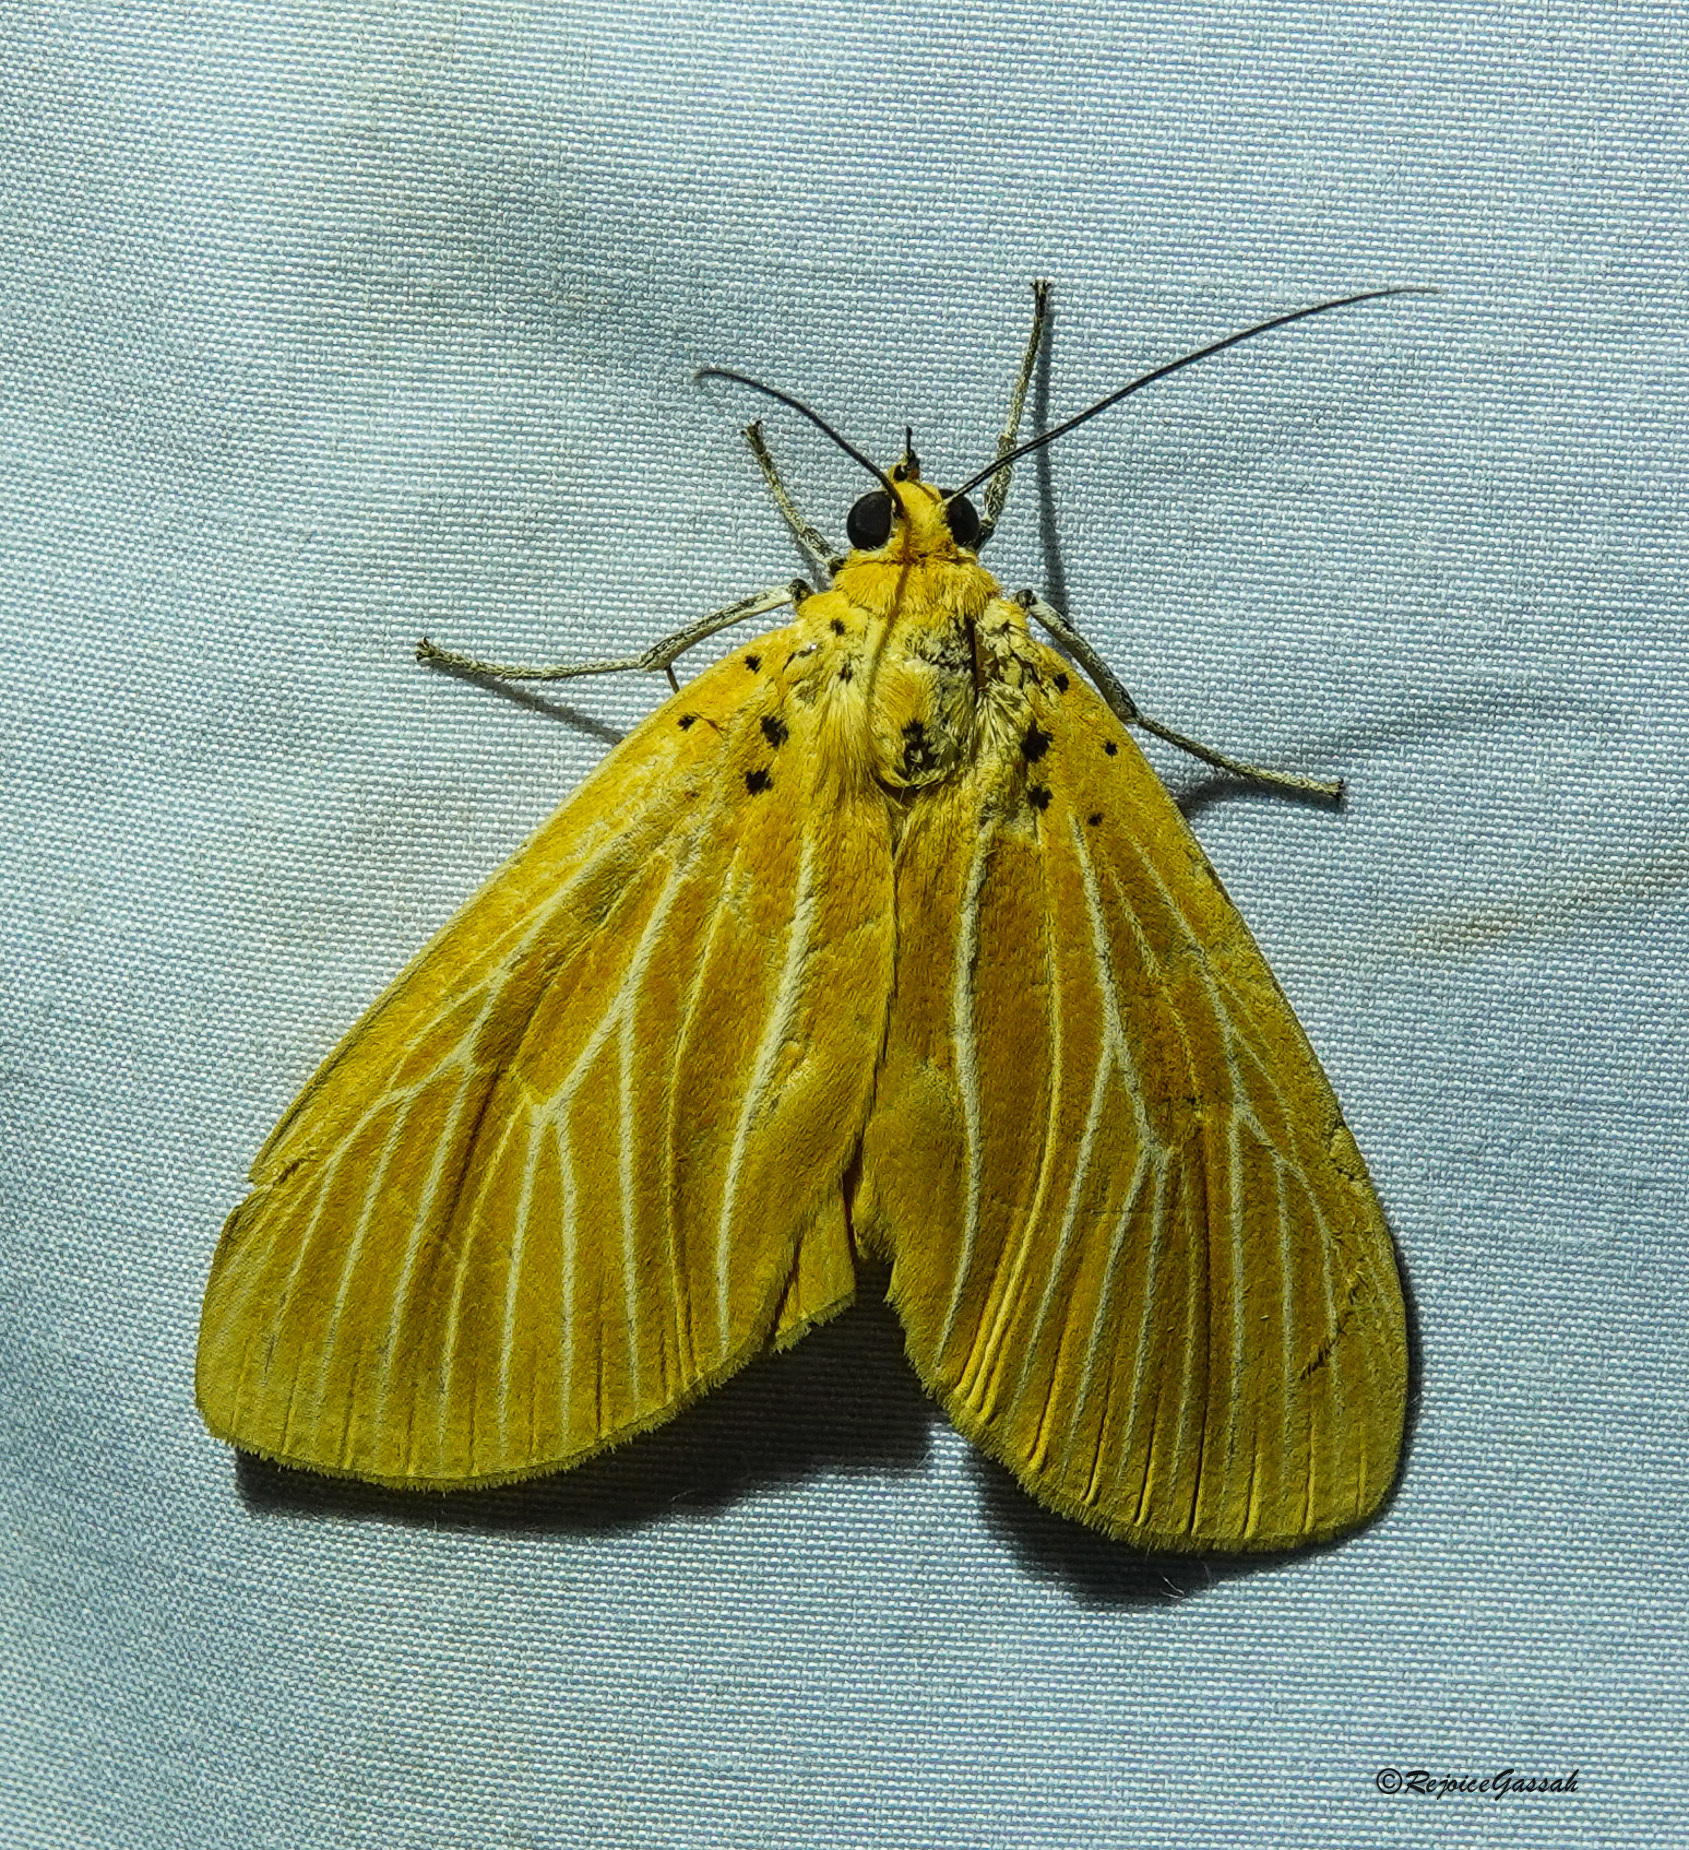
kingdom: Animalia
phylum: Arthropoda
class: Insecta
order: Lepidoptera
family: Erebidae
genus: Asota
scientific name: Asota egens
